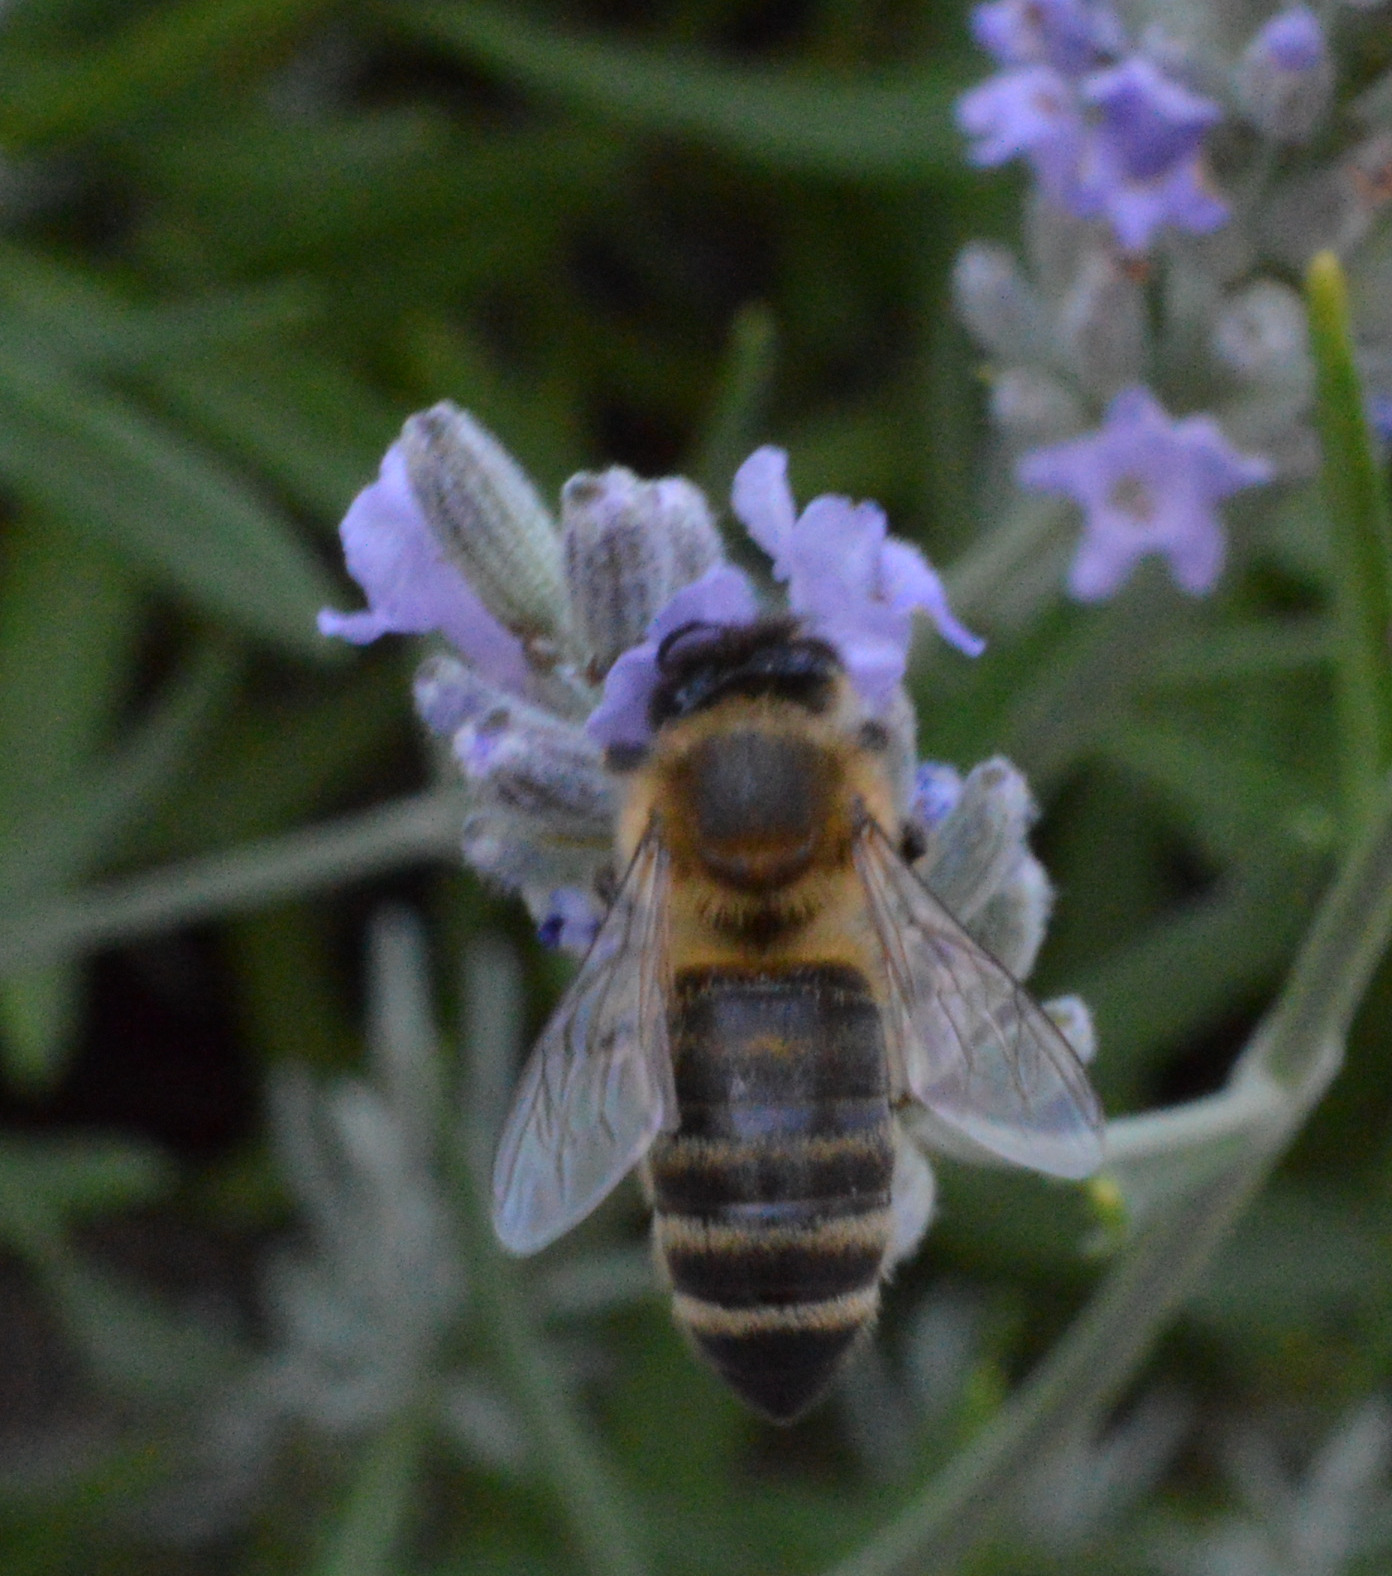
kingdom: Animalia
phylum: Arthropoda
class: Insecta
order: Hymenoptera
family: Apidae
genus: Apis
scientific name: Apis mellifera
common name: Honey bee
